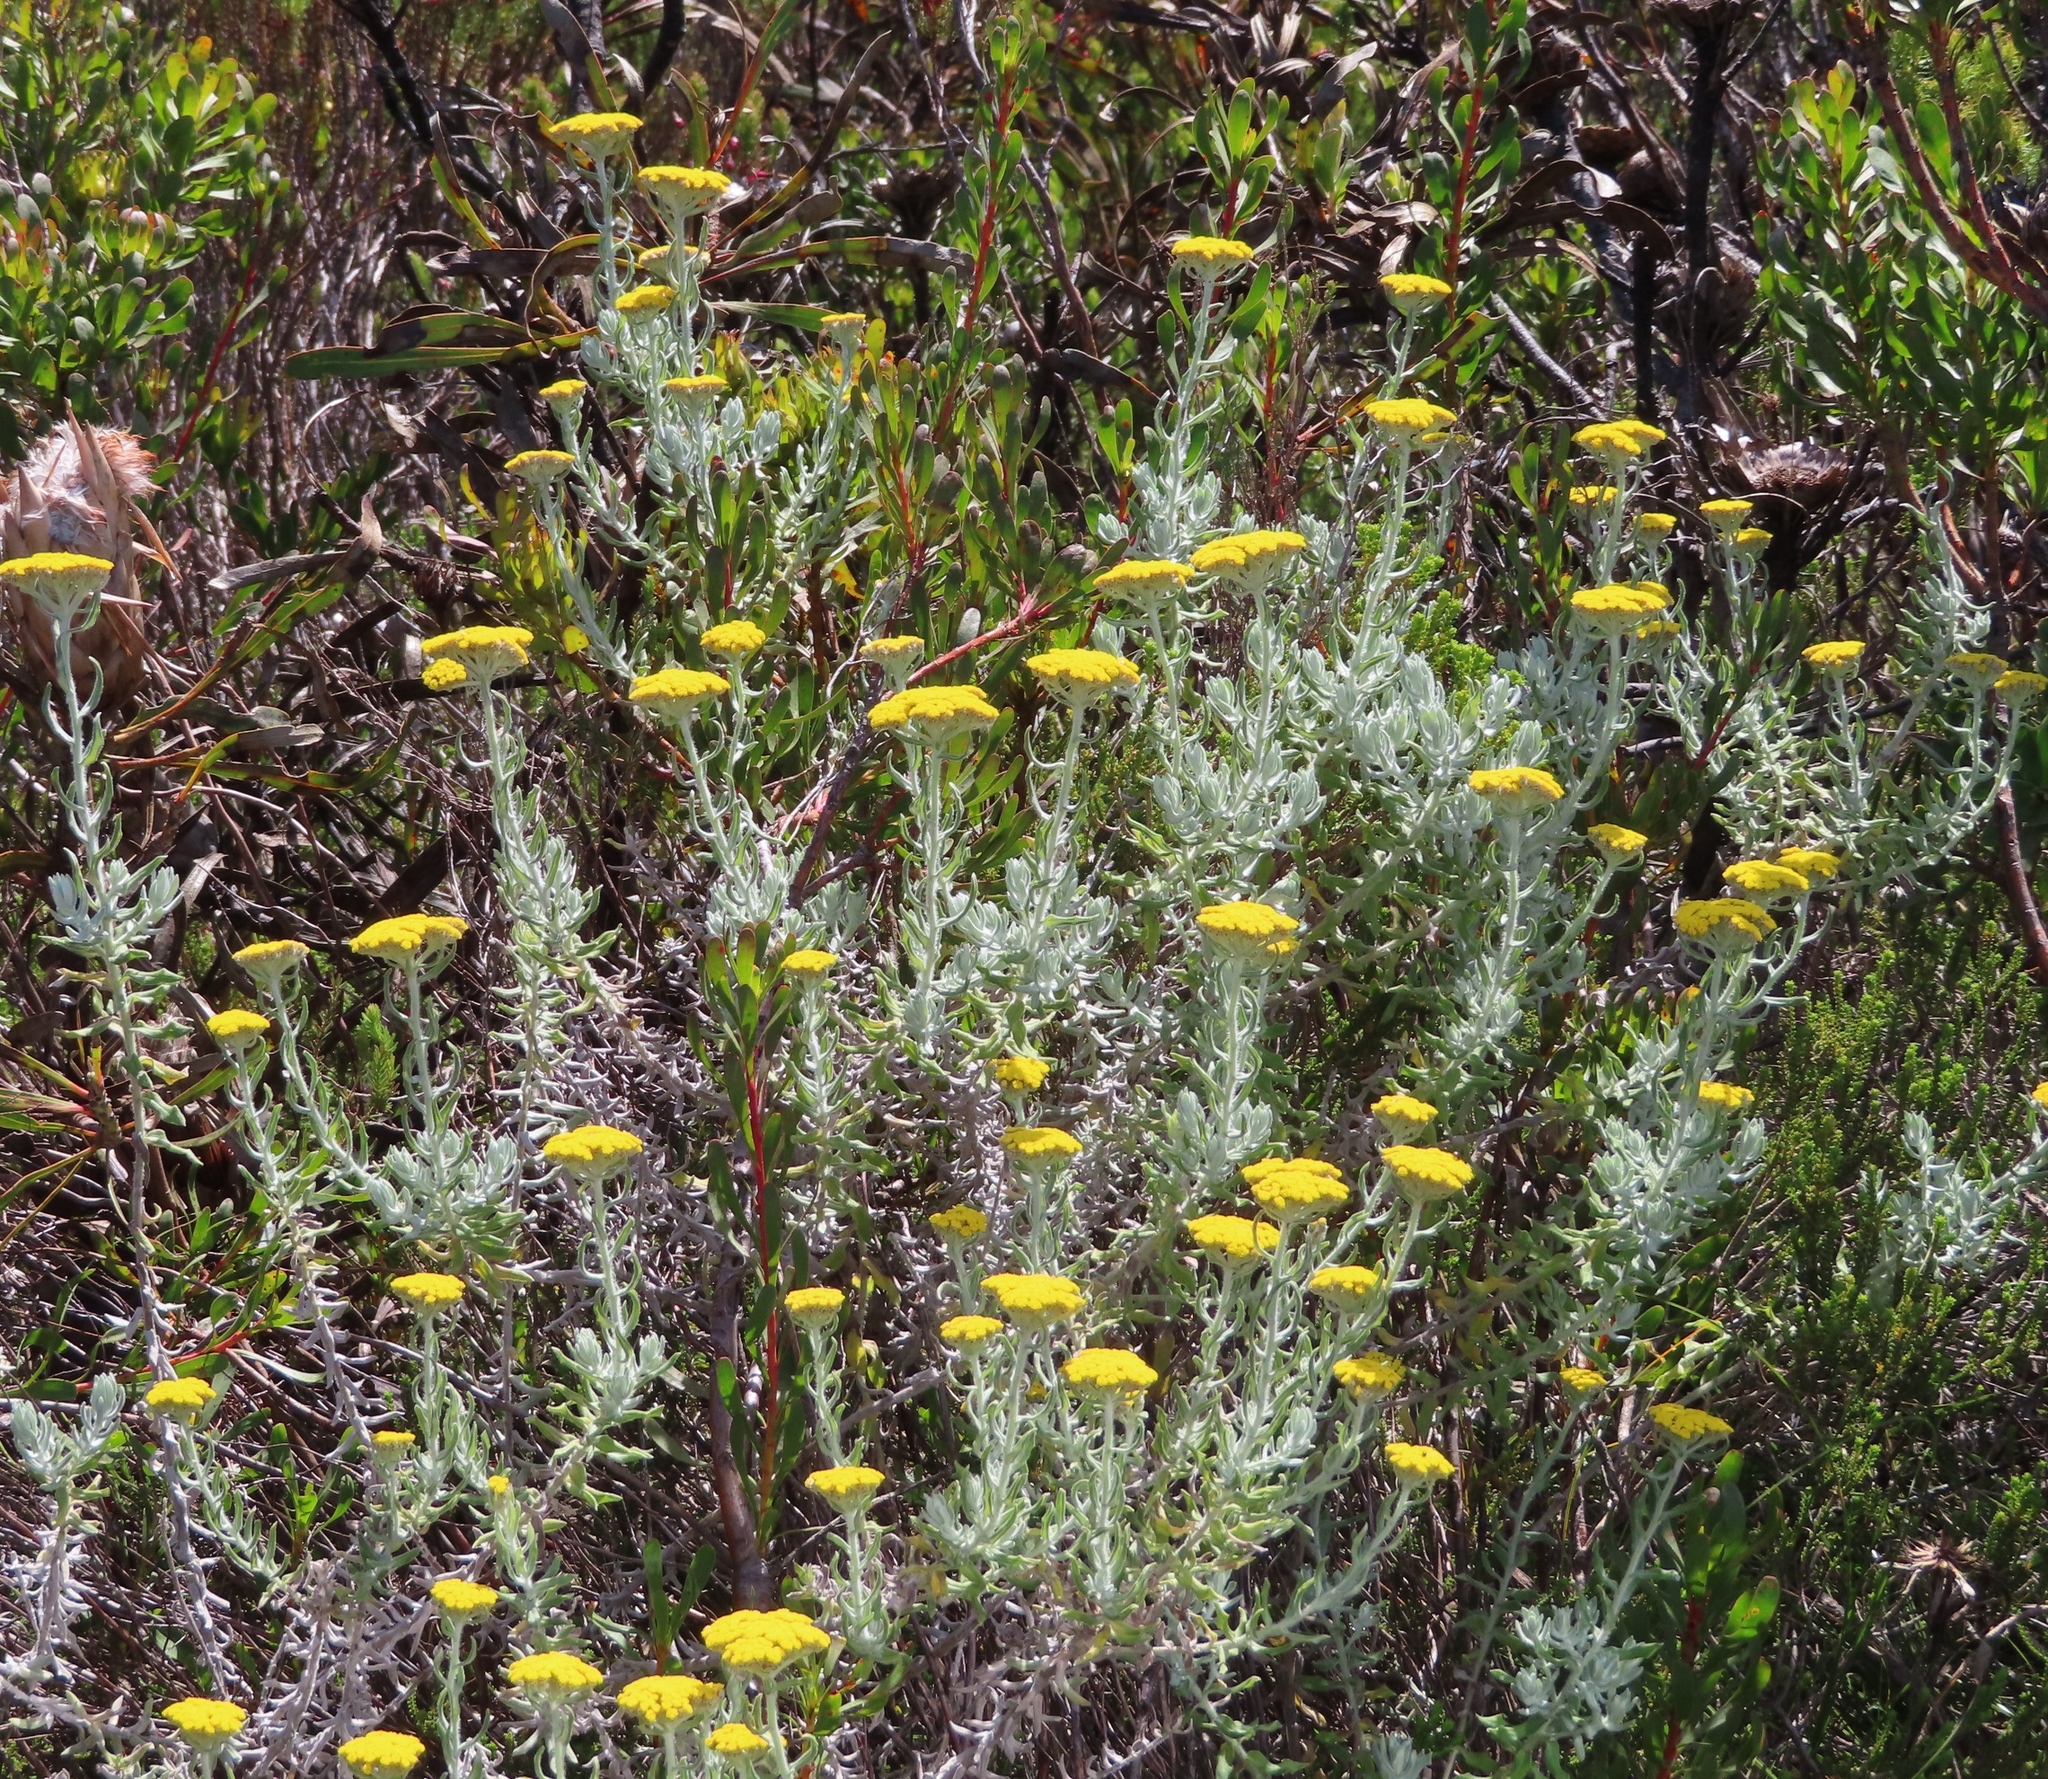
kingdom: Plantae
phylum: Tracheophyta
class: Magnoliopsida
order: Asterales
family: Asteraceae
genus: Helichrysum
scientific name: Helichrysum dasyanthum
